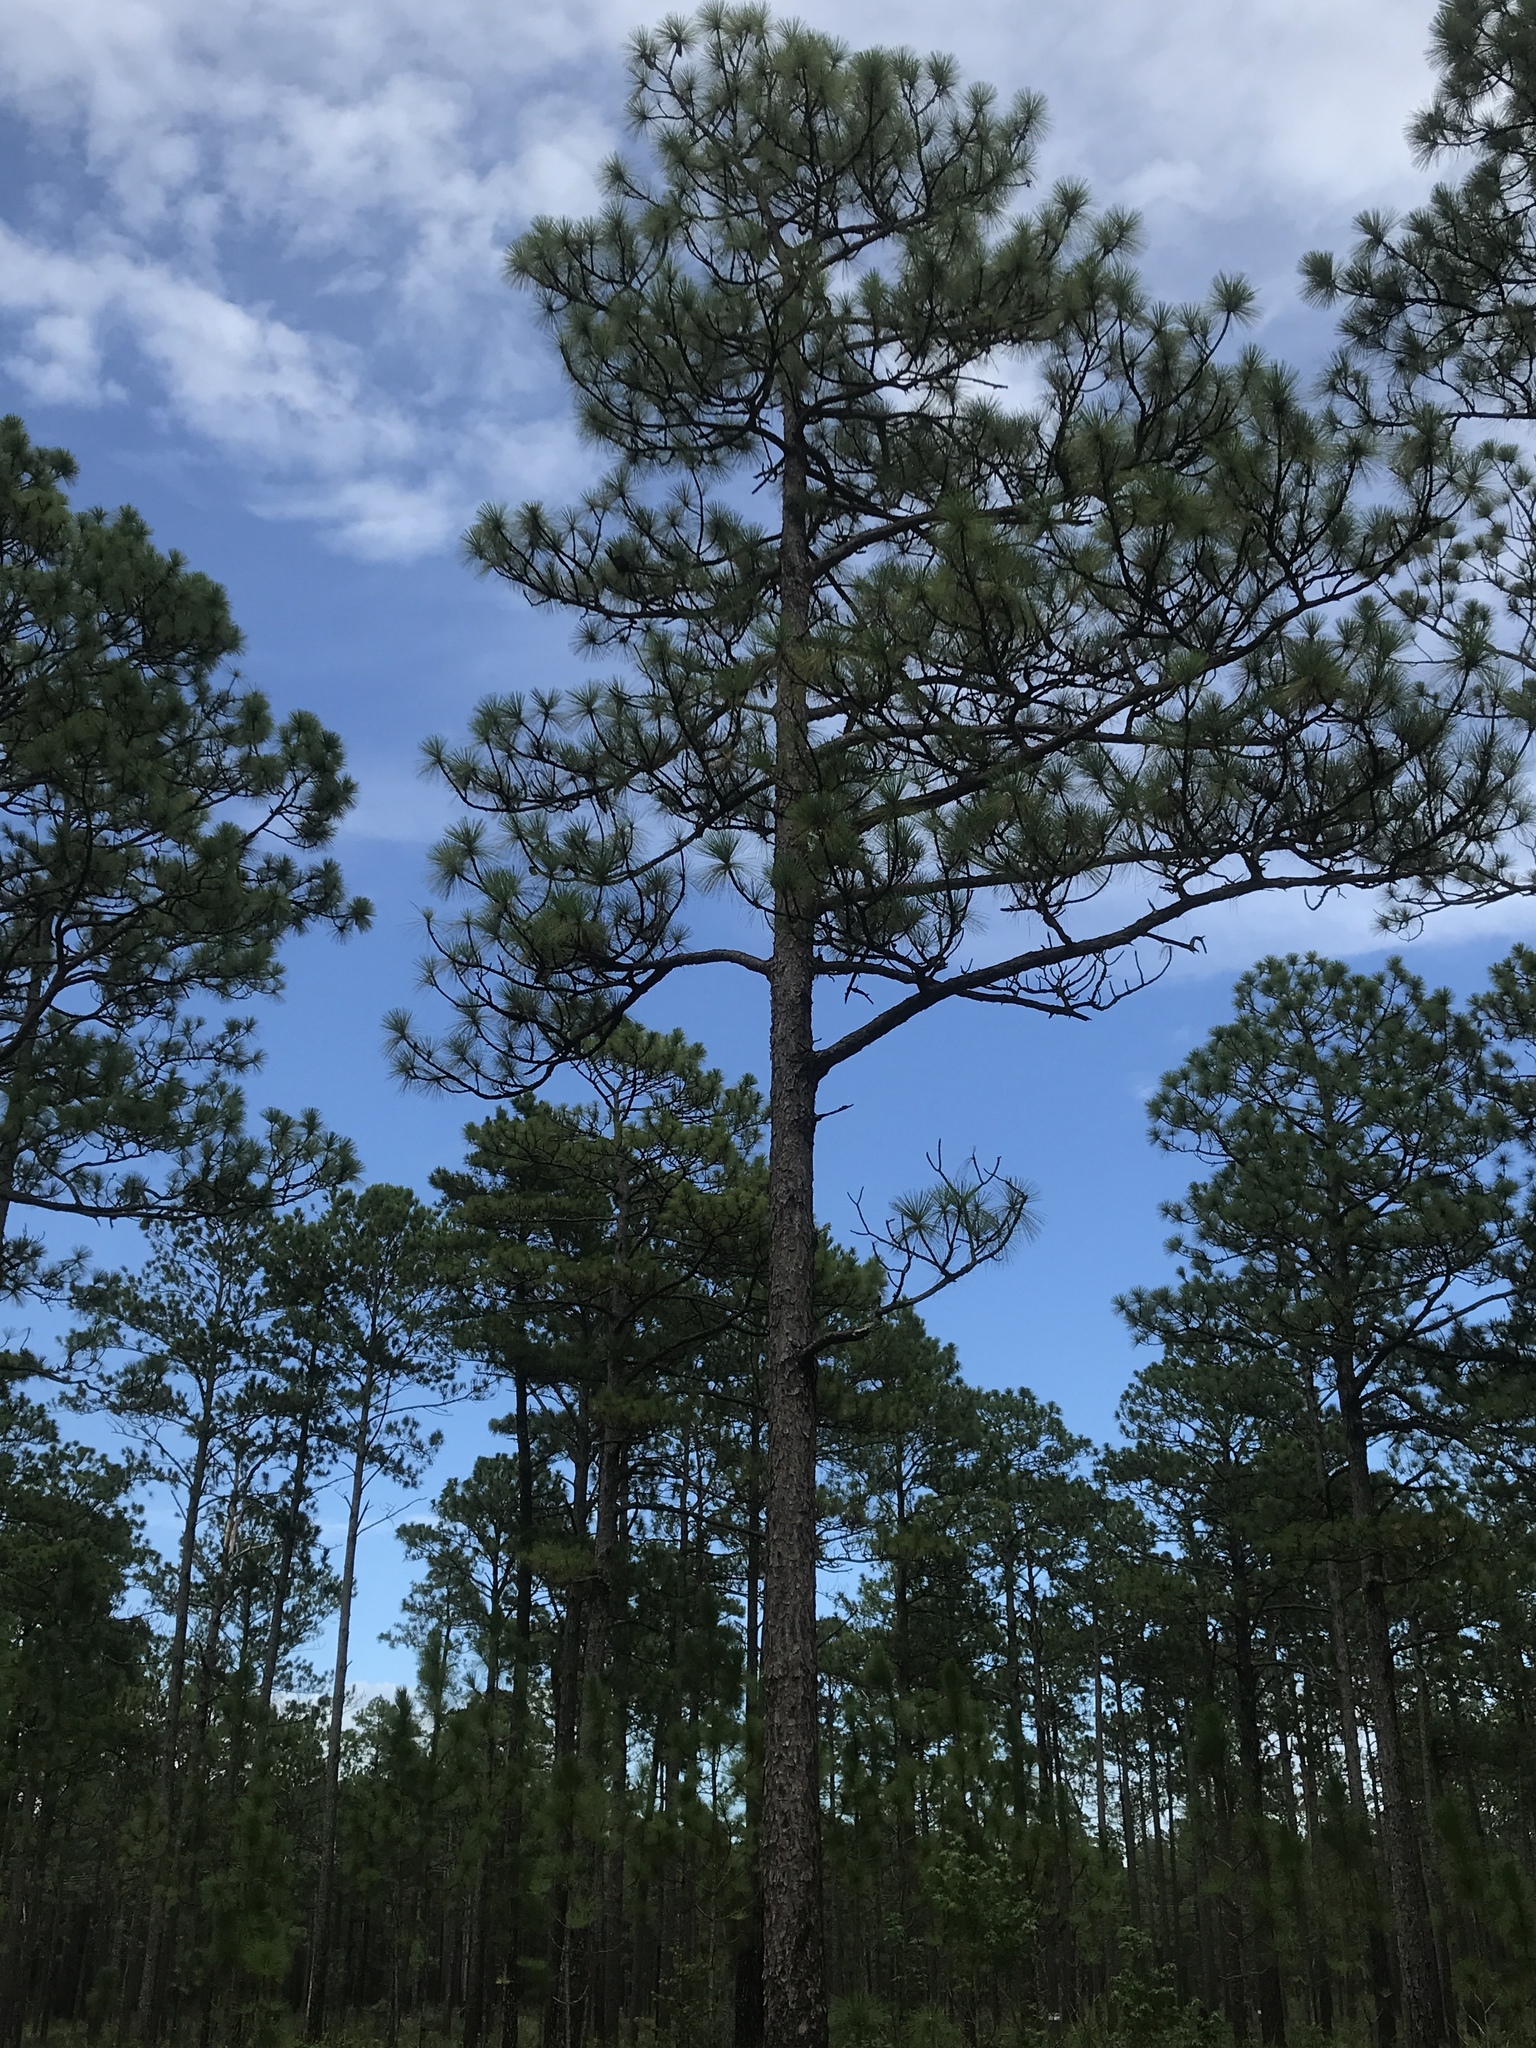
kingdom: Plantae
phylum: Tracheophyta
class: Pinopsida
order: Pinales
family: Pinaceae
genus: Pinus
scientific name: Pinus palustris
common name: Longleaf pine
